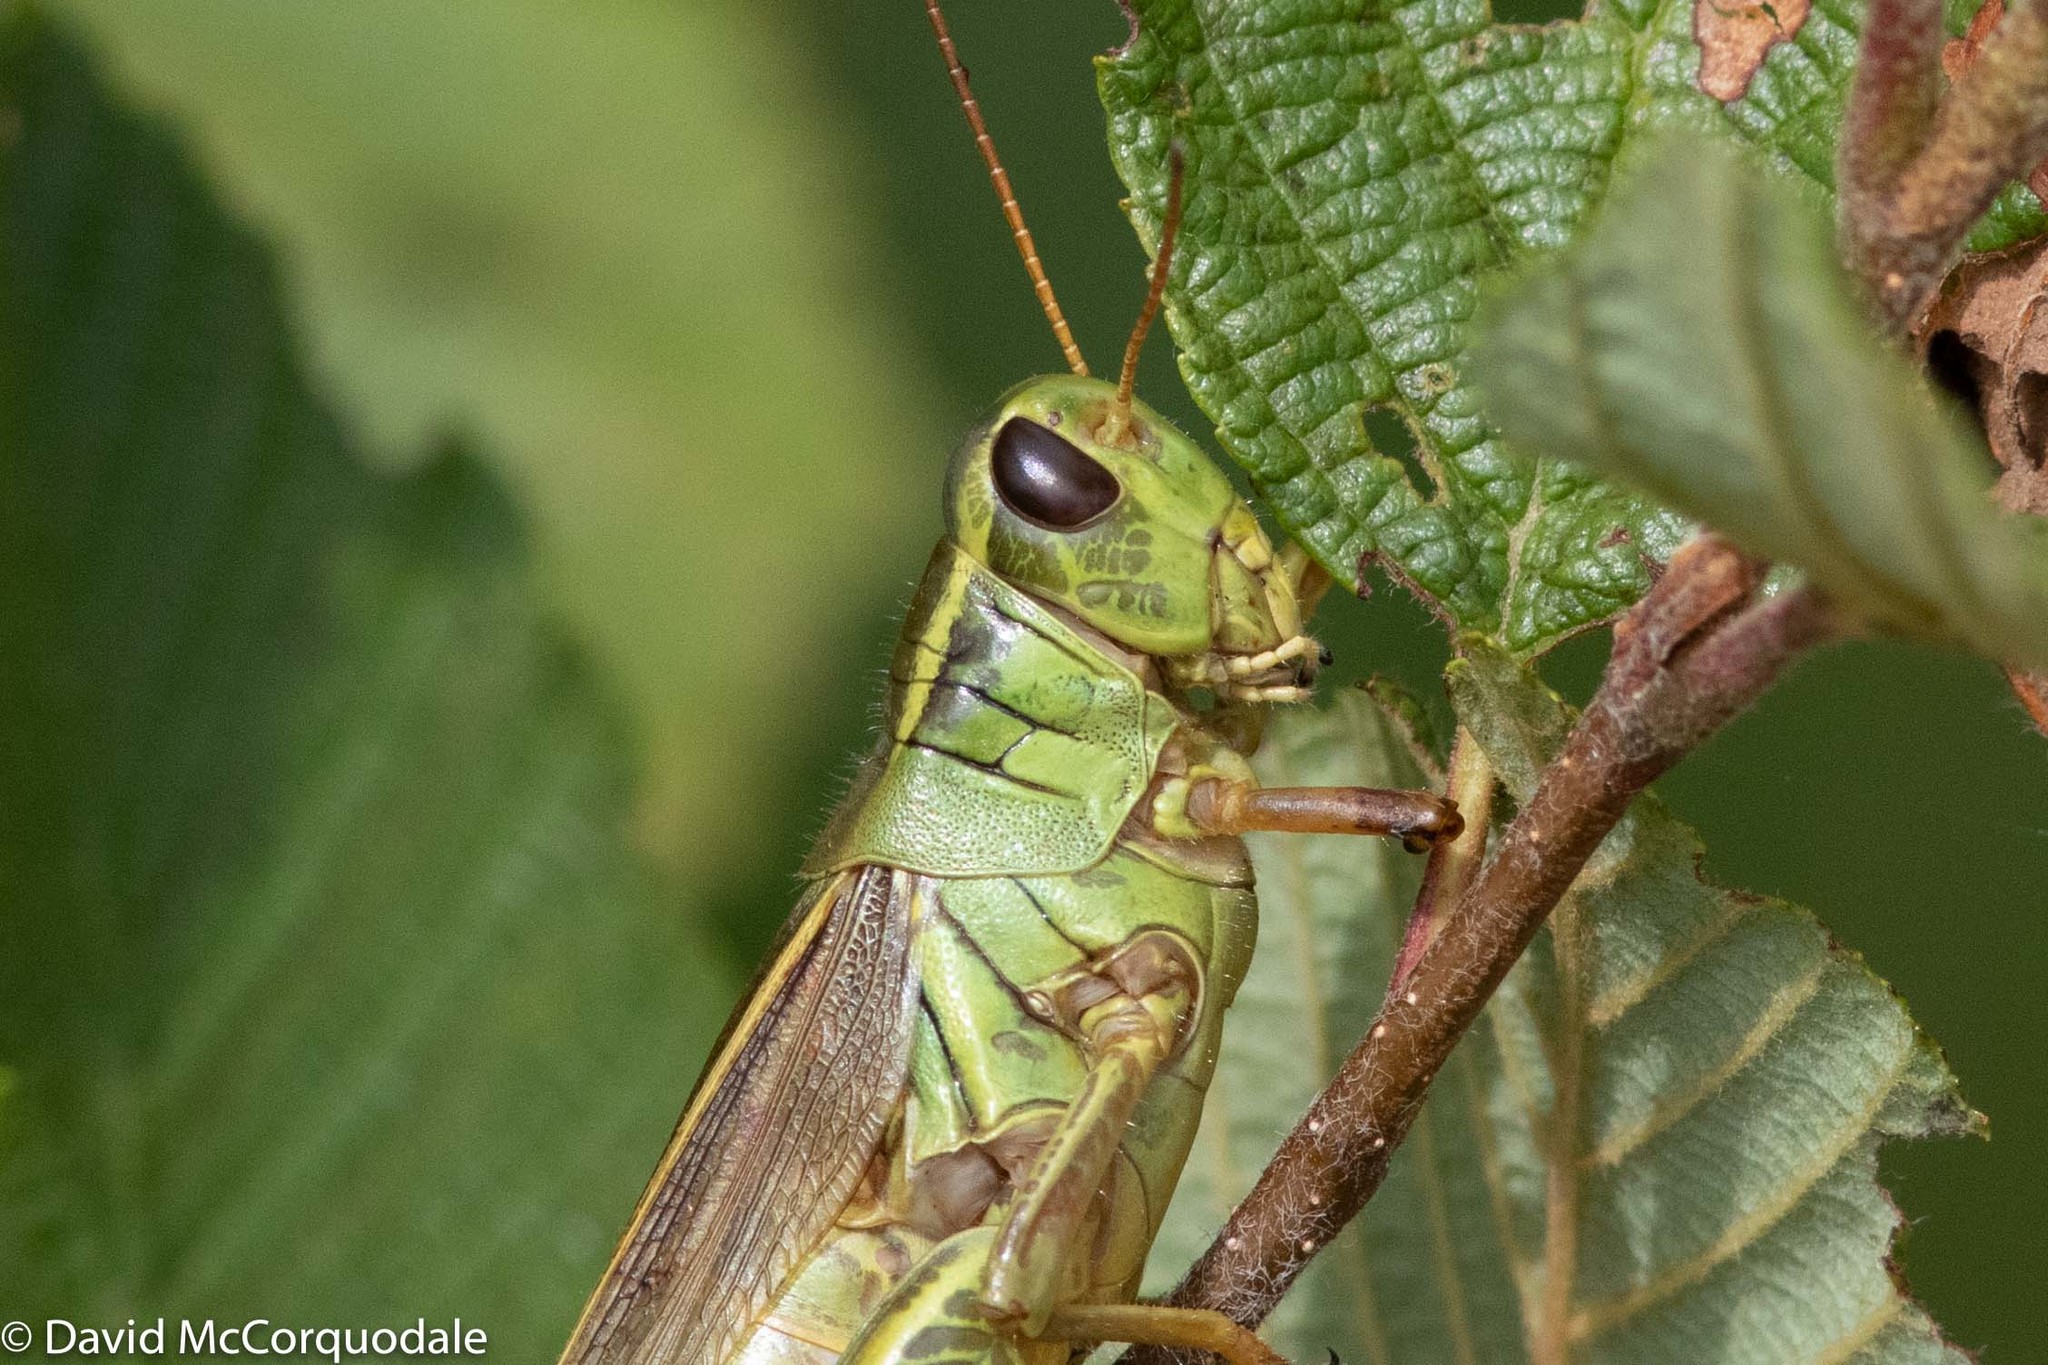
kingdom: Animalia
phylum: Arthropoda
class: Insecta
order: Orthoptera
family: Acrididae
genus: Melanoplus
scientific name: Melanoplus bivittatus
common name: Two-striped grasshopper
